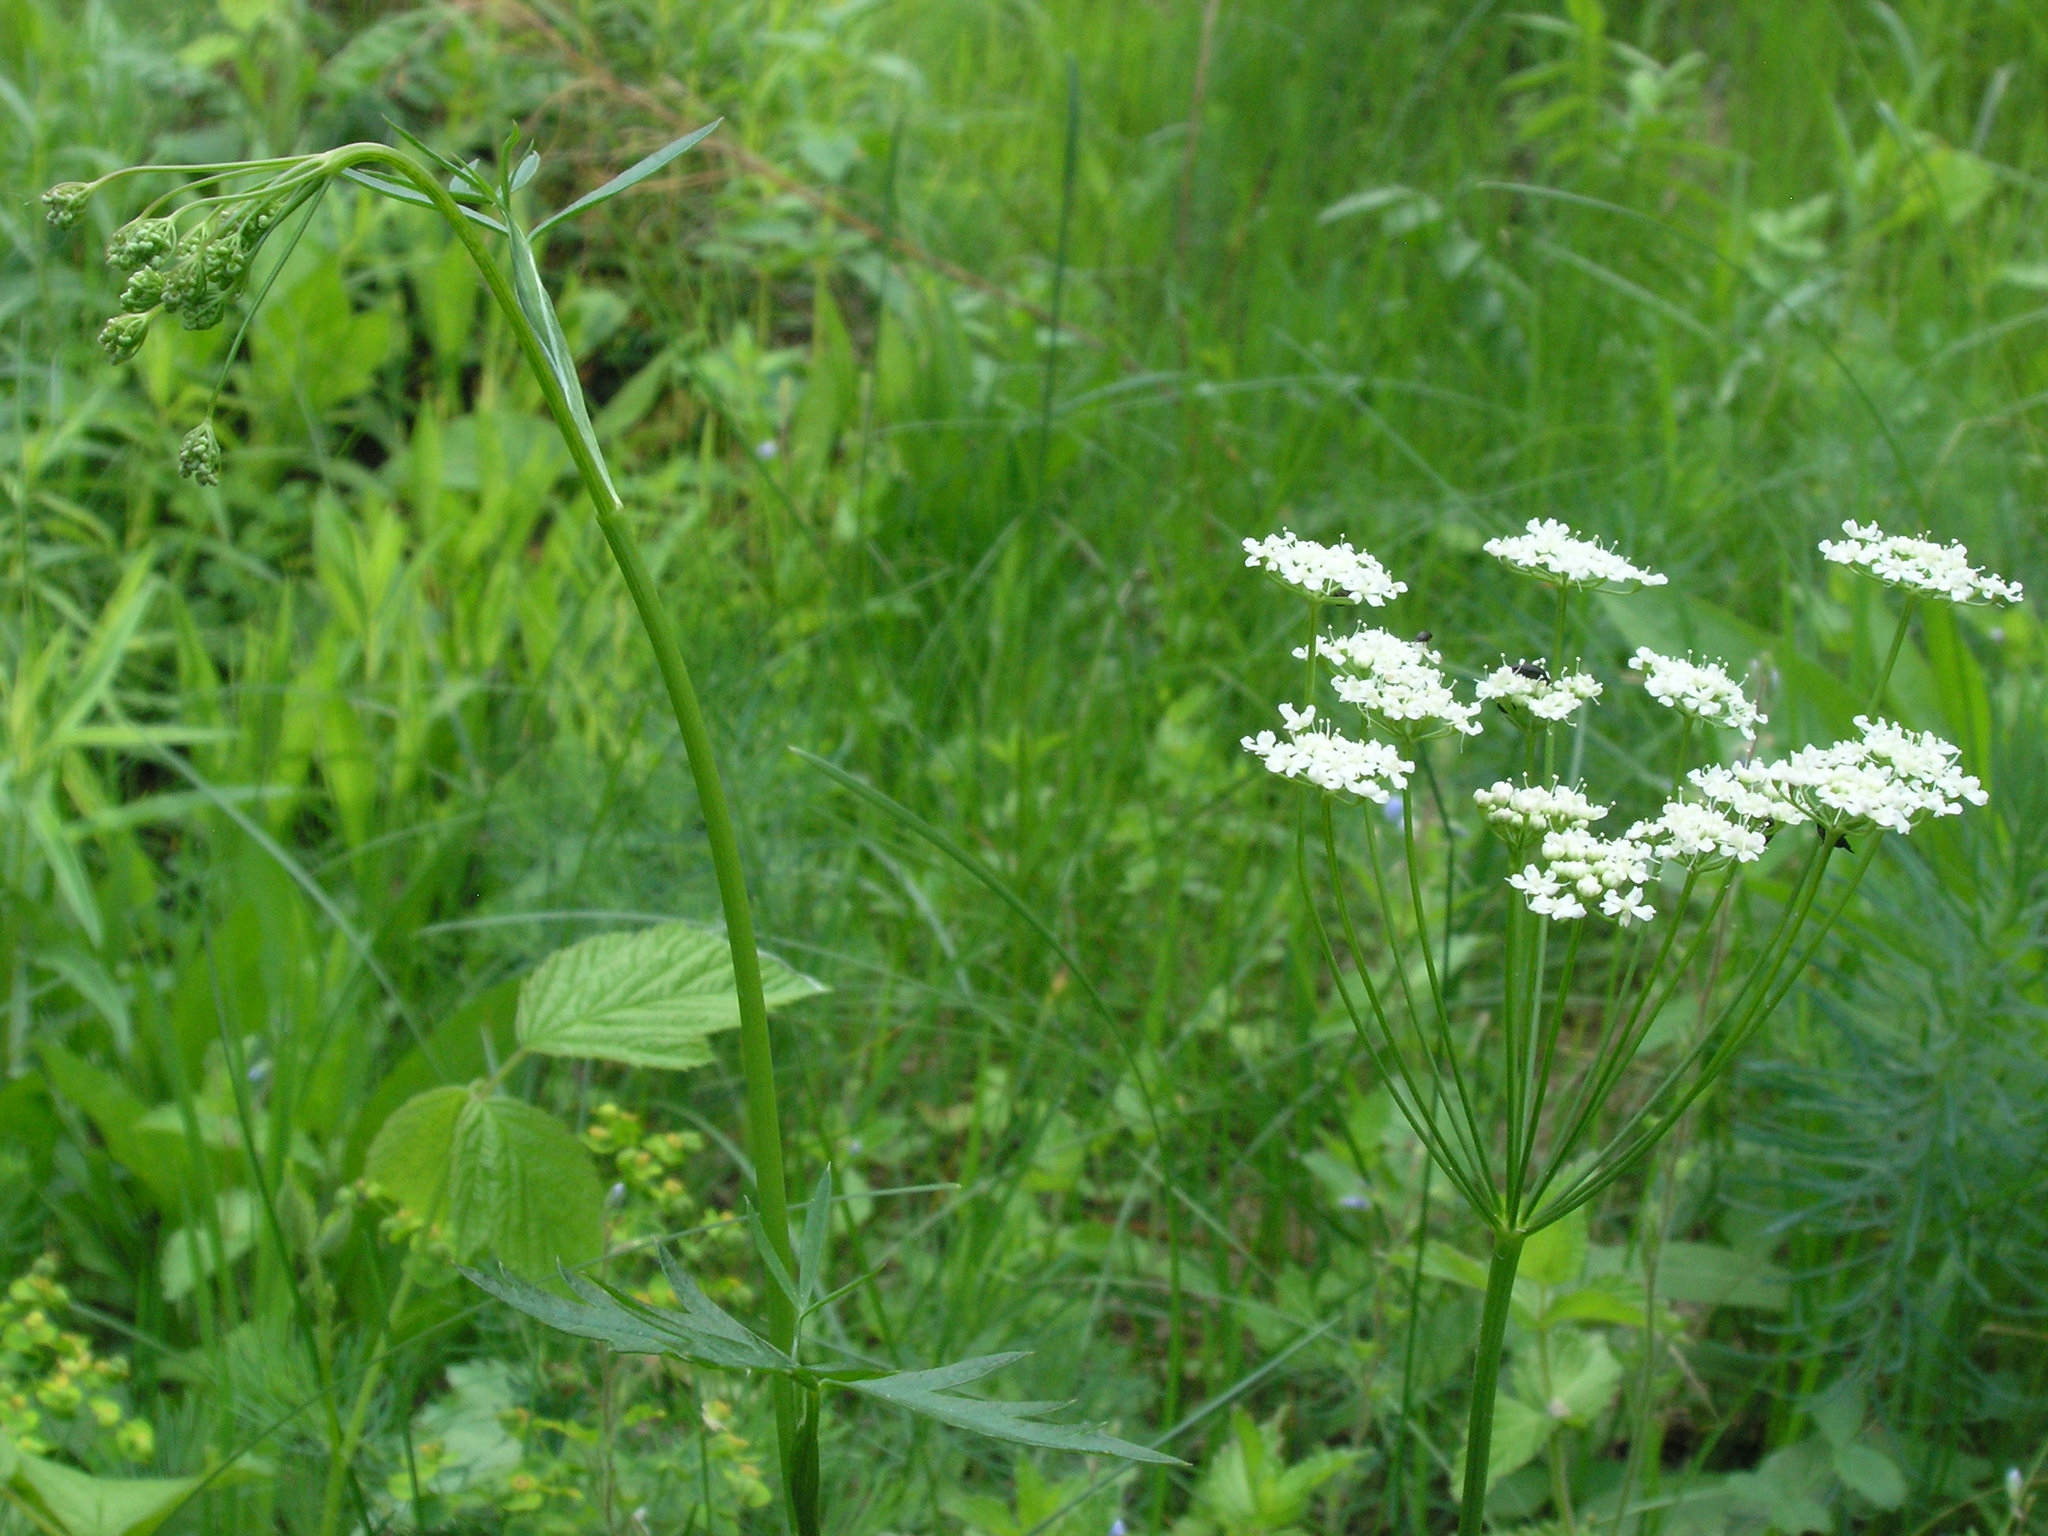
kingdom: Plantae
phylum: Tracheophyta
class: Magnoliopsida
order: Apiales
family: Apiaceae
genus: Pimpinella
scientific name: Pimpinella saxifraga
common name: Burnet-saxifrage
